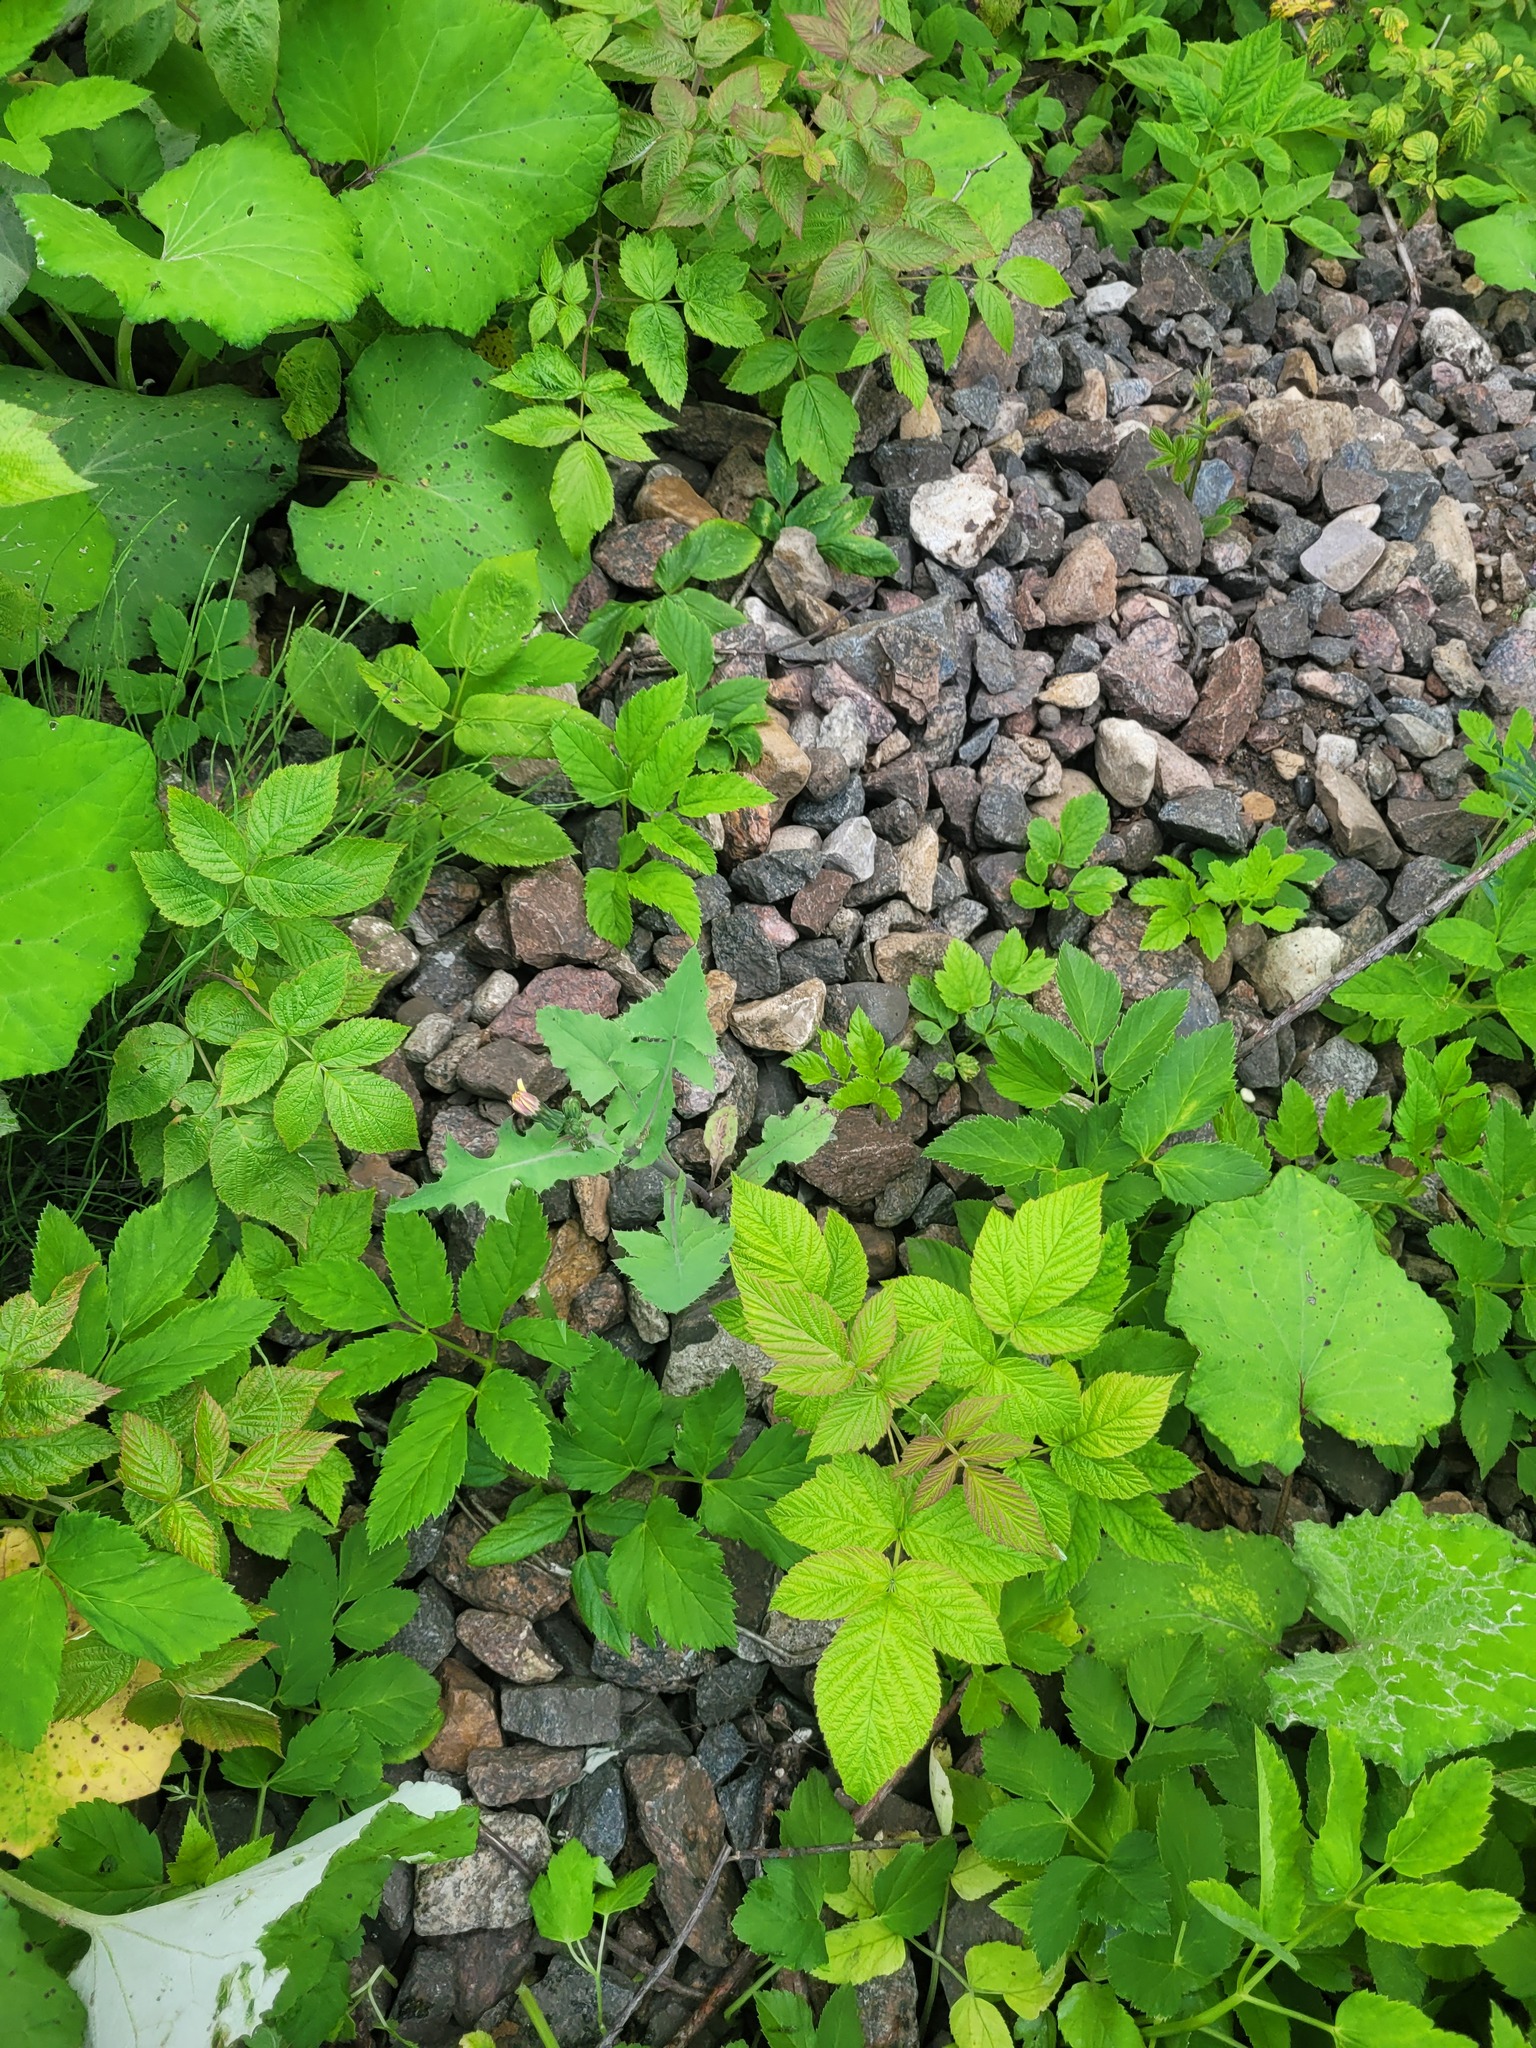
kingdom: Plantae
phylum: Tracheophyta
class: Magnoliopsida
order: Asterales
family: Asteraceae
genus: Sonchus
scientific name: Sonchus oleraceus
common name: Common sowthistle
